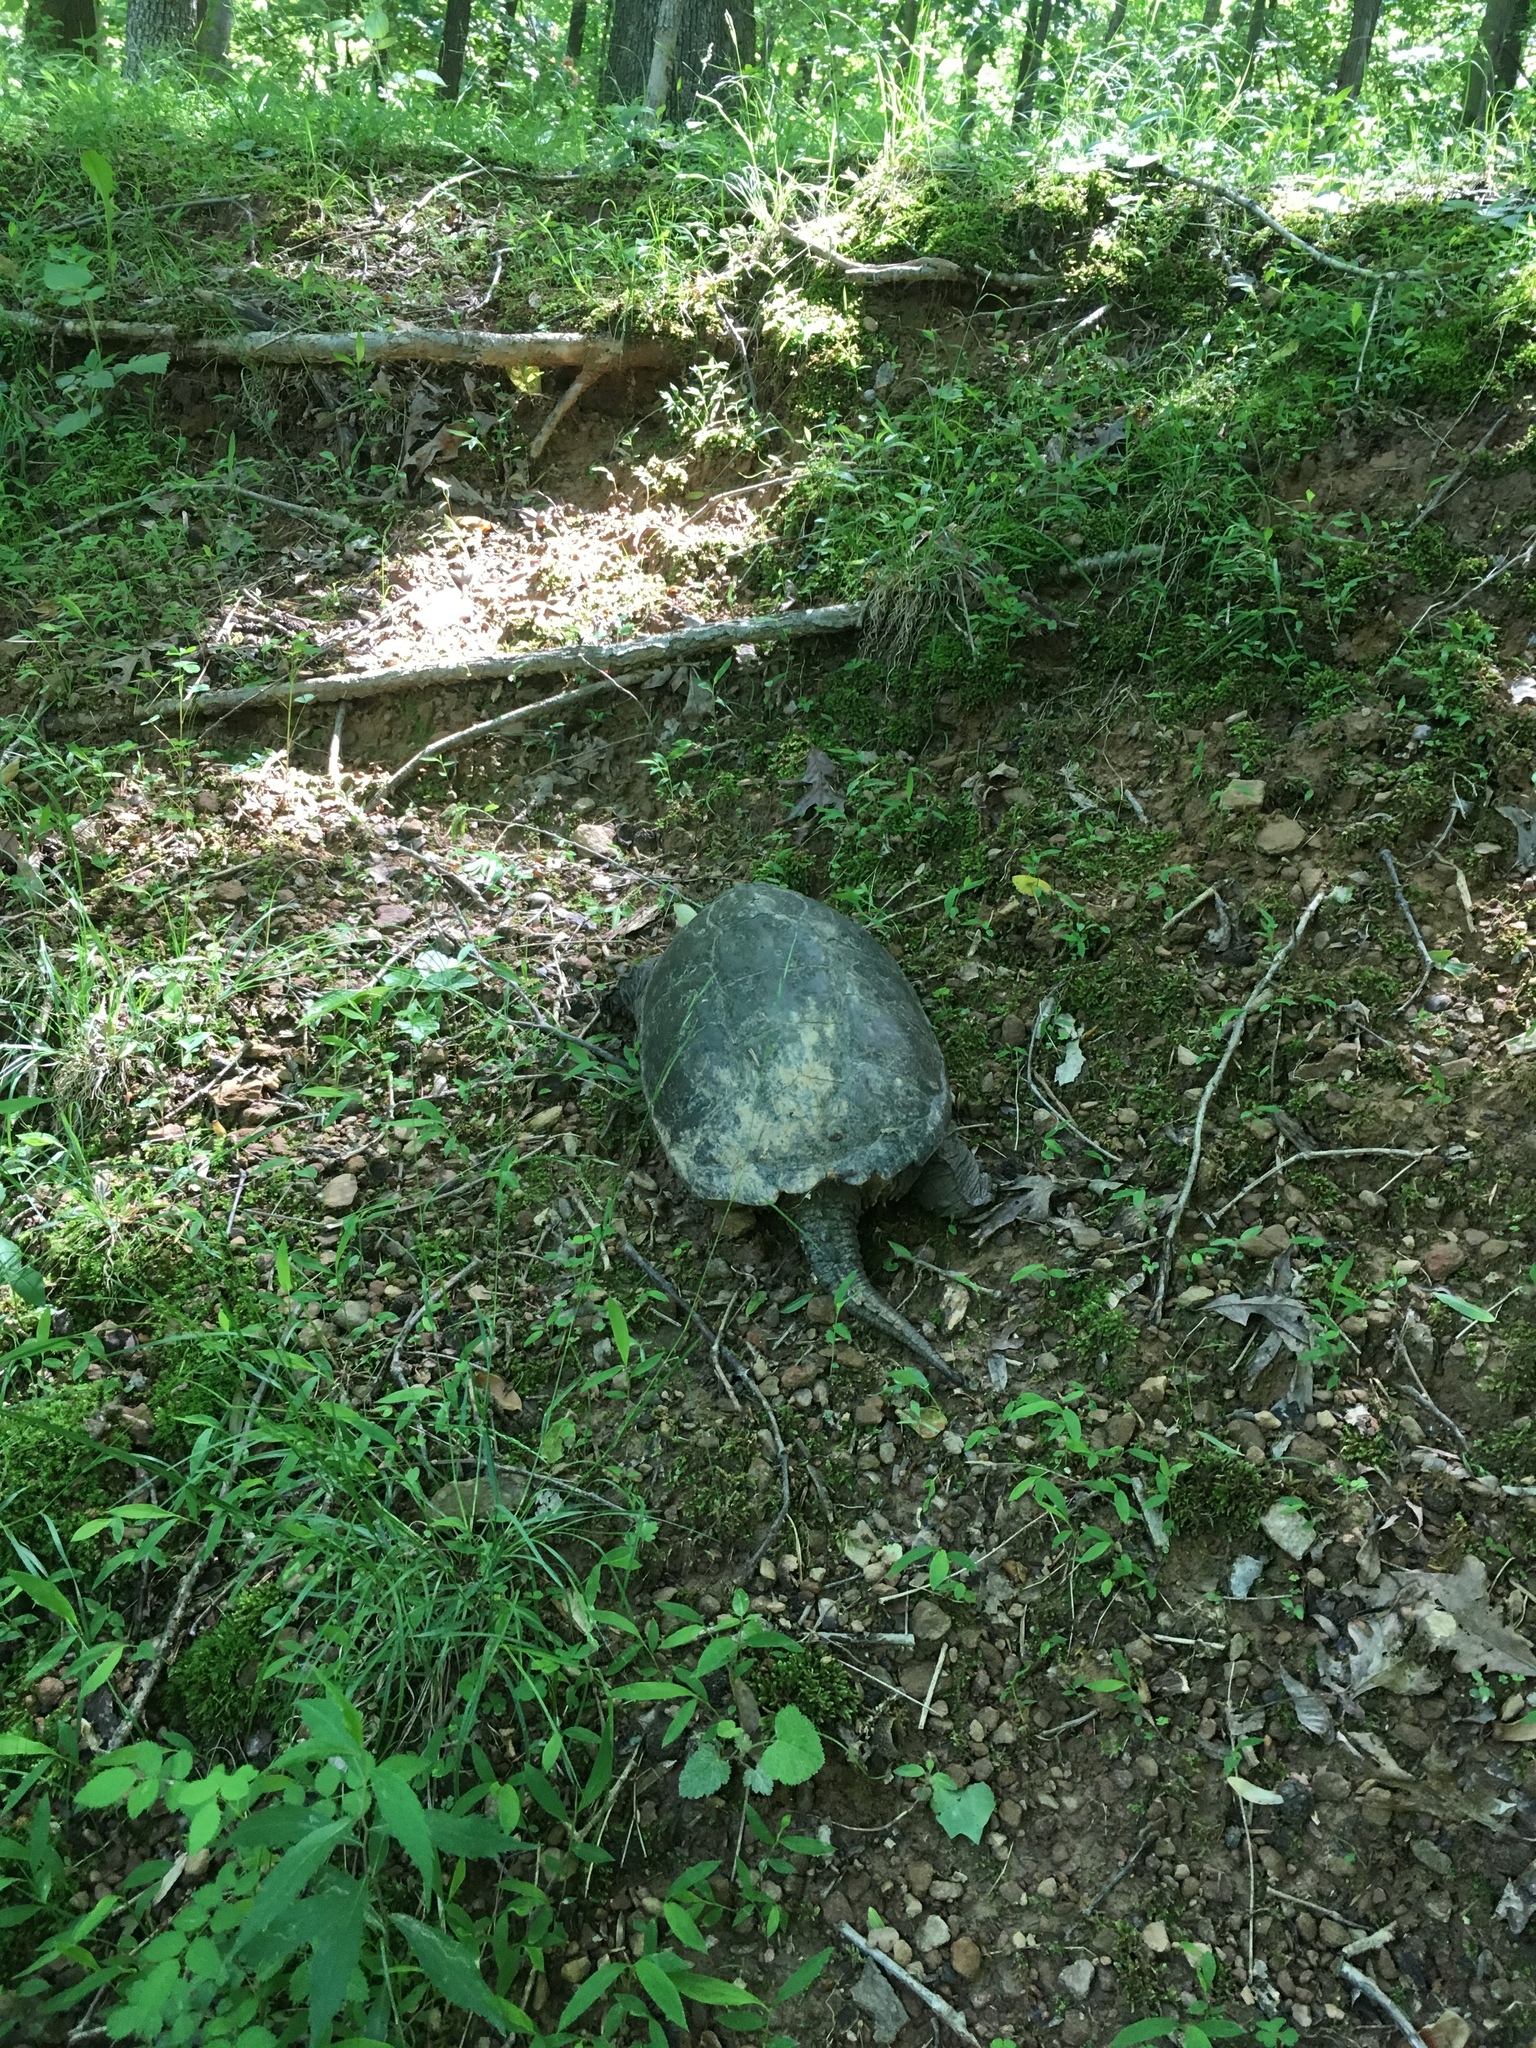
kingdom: Animalia
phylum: Chordata
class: Testudines
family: Chelydridae
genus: Chelydra
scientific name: Chelydra serpentina
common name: Common snapping turtle
